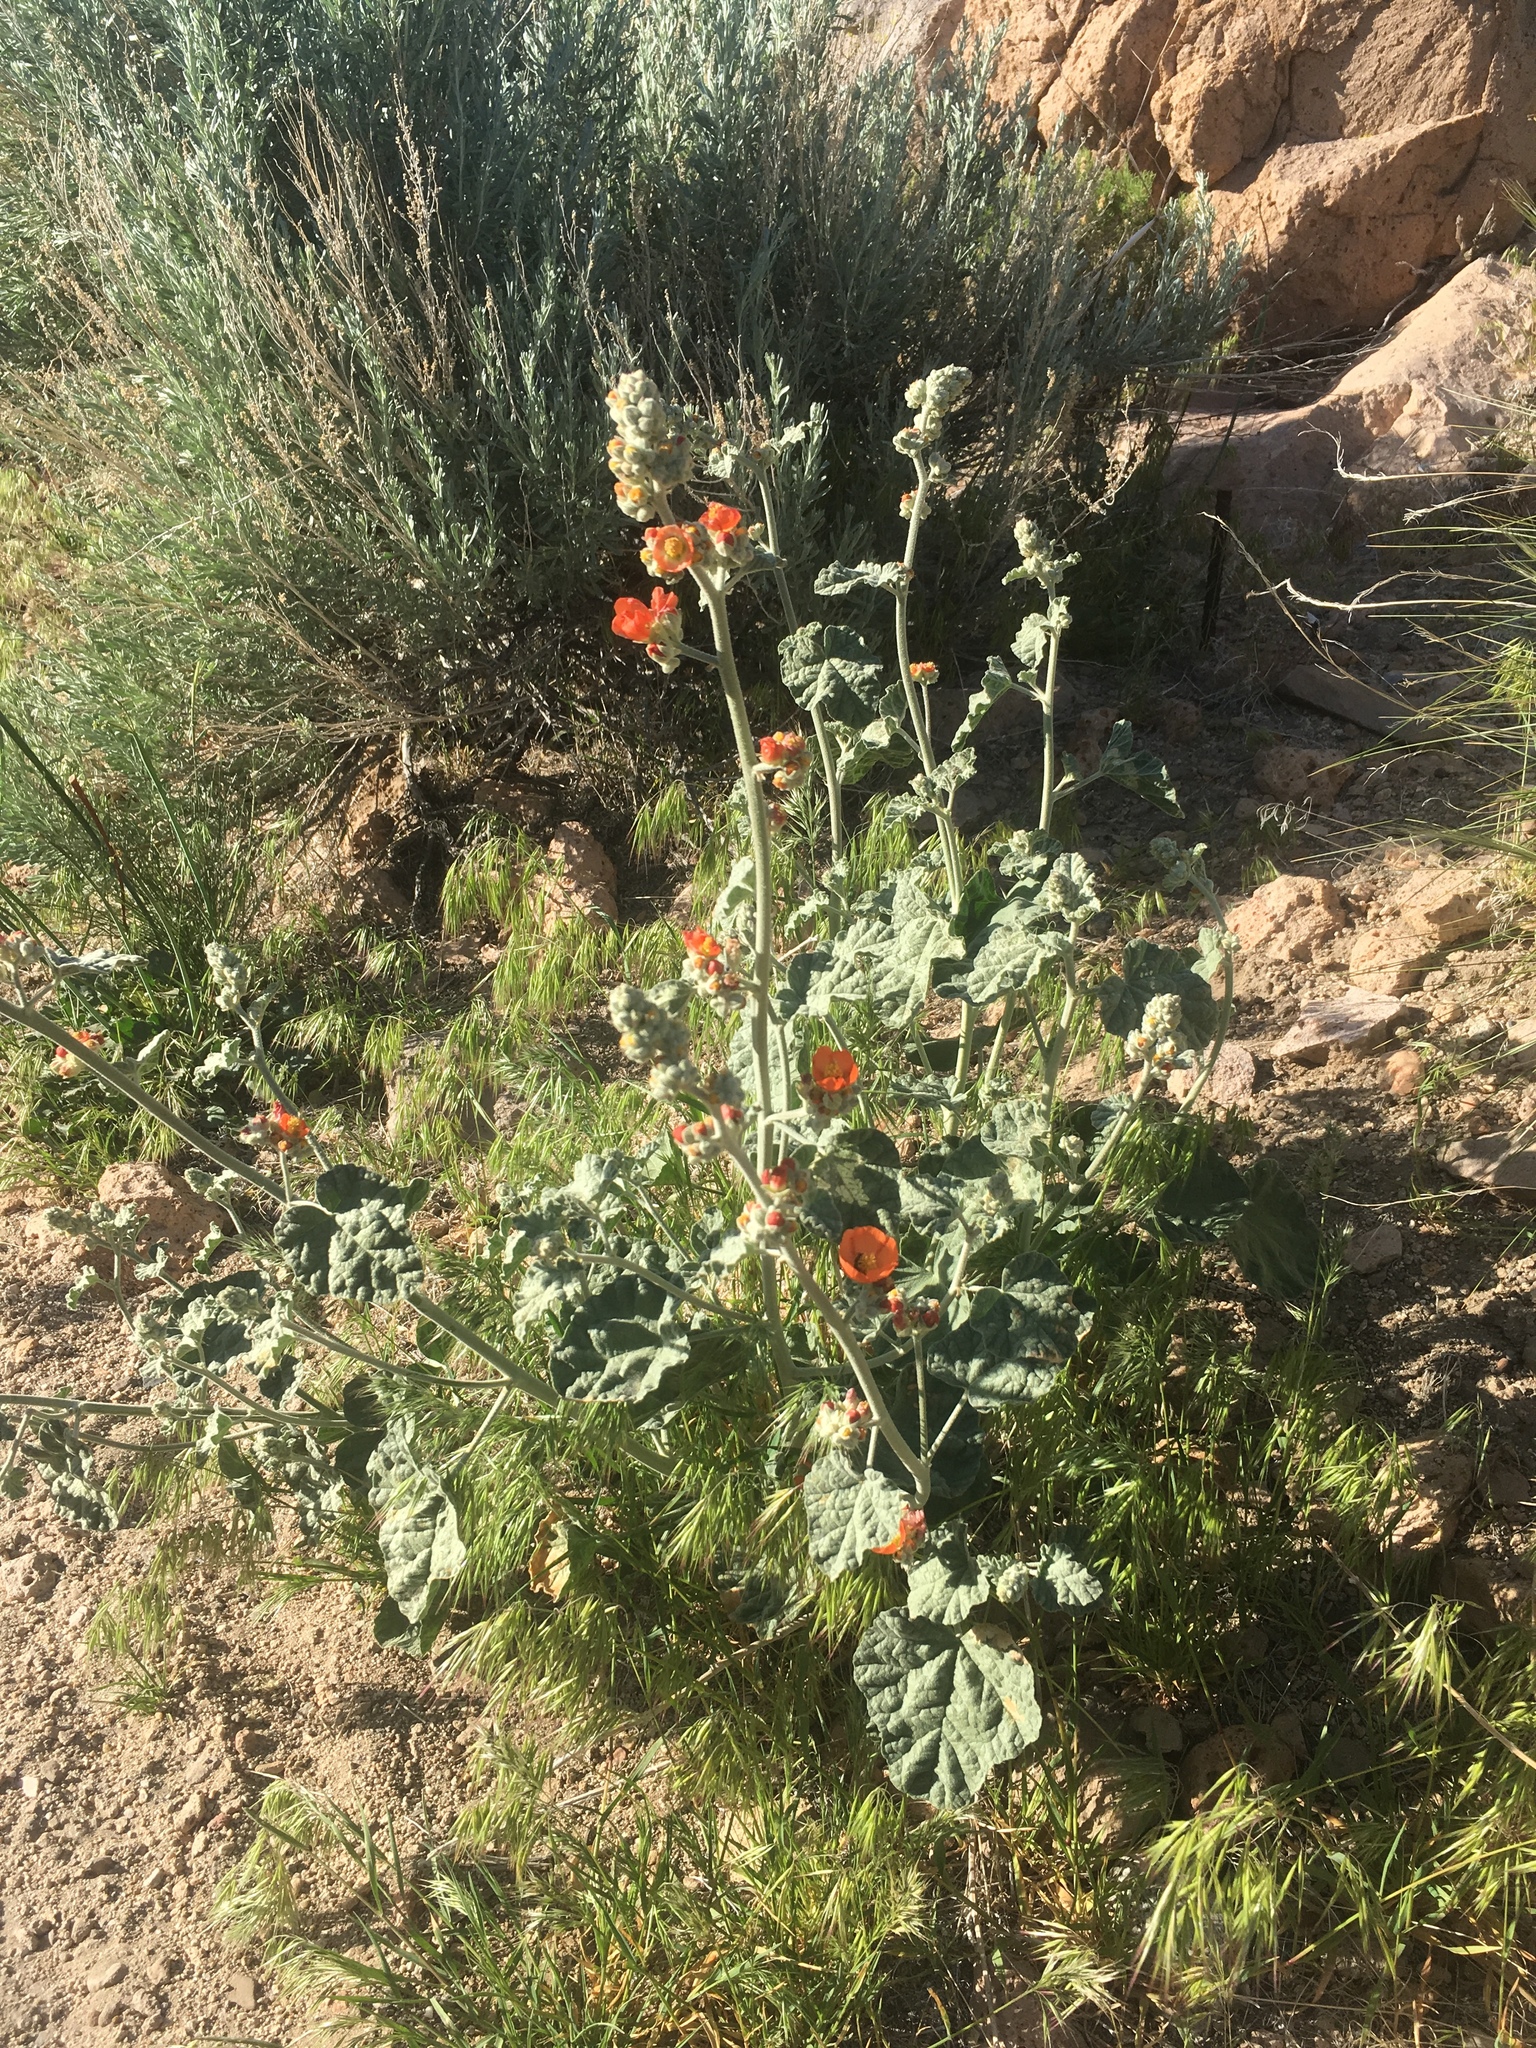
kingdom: Plantae
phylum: Tracheophyta
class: Magnoliopsida
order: Malvales
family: Malvaceae
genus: Sphaeralcea
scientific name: Sphaeralcea ambigua
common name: Apricot globe-mallow
